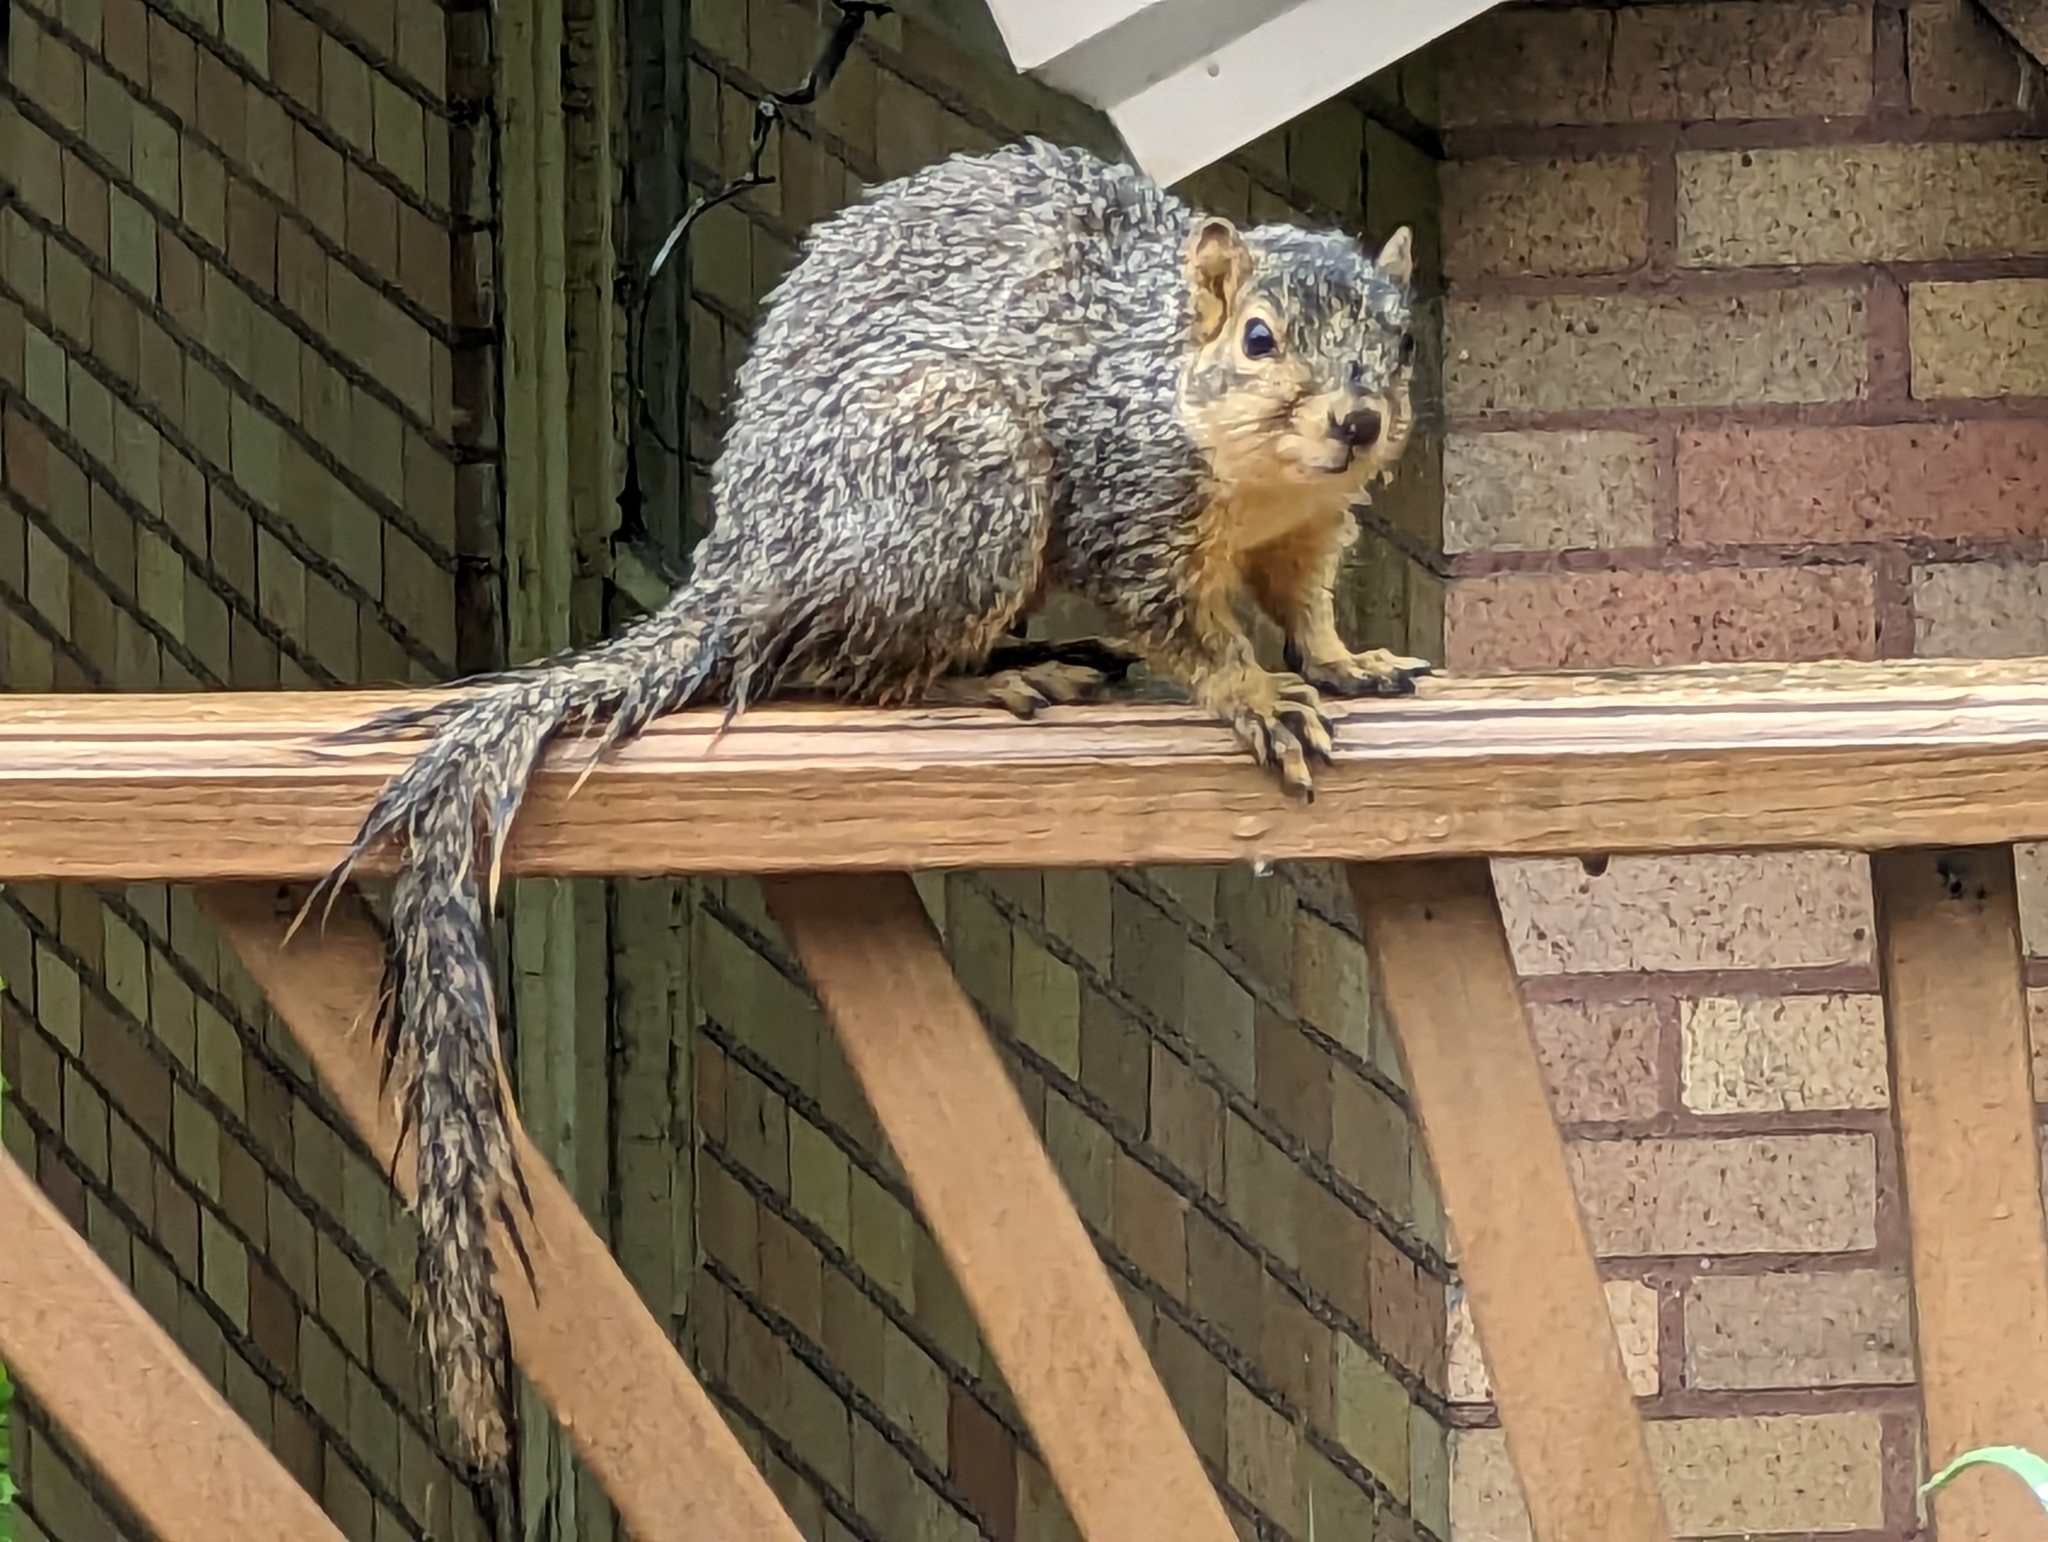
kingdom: Animalia
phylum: Chordata
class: Mammalia
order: Rodentia
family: Sciuridae
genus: Sciurus
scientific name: Sciurus niger
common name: Fox squirrel
